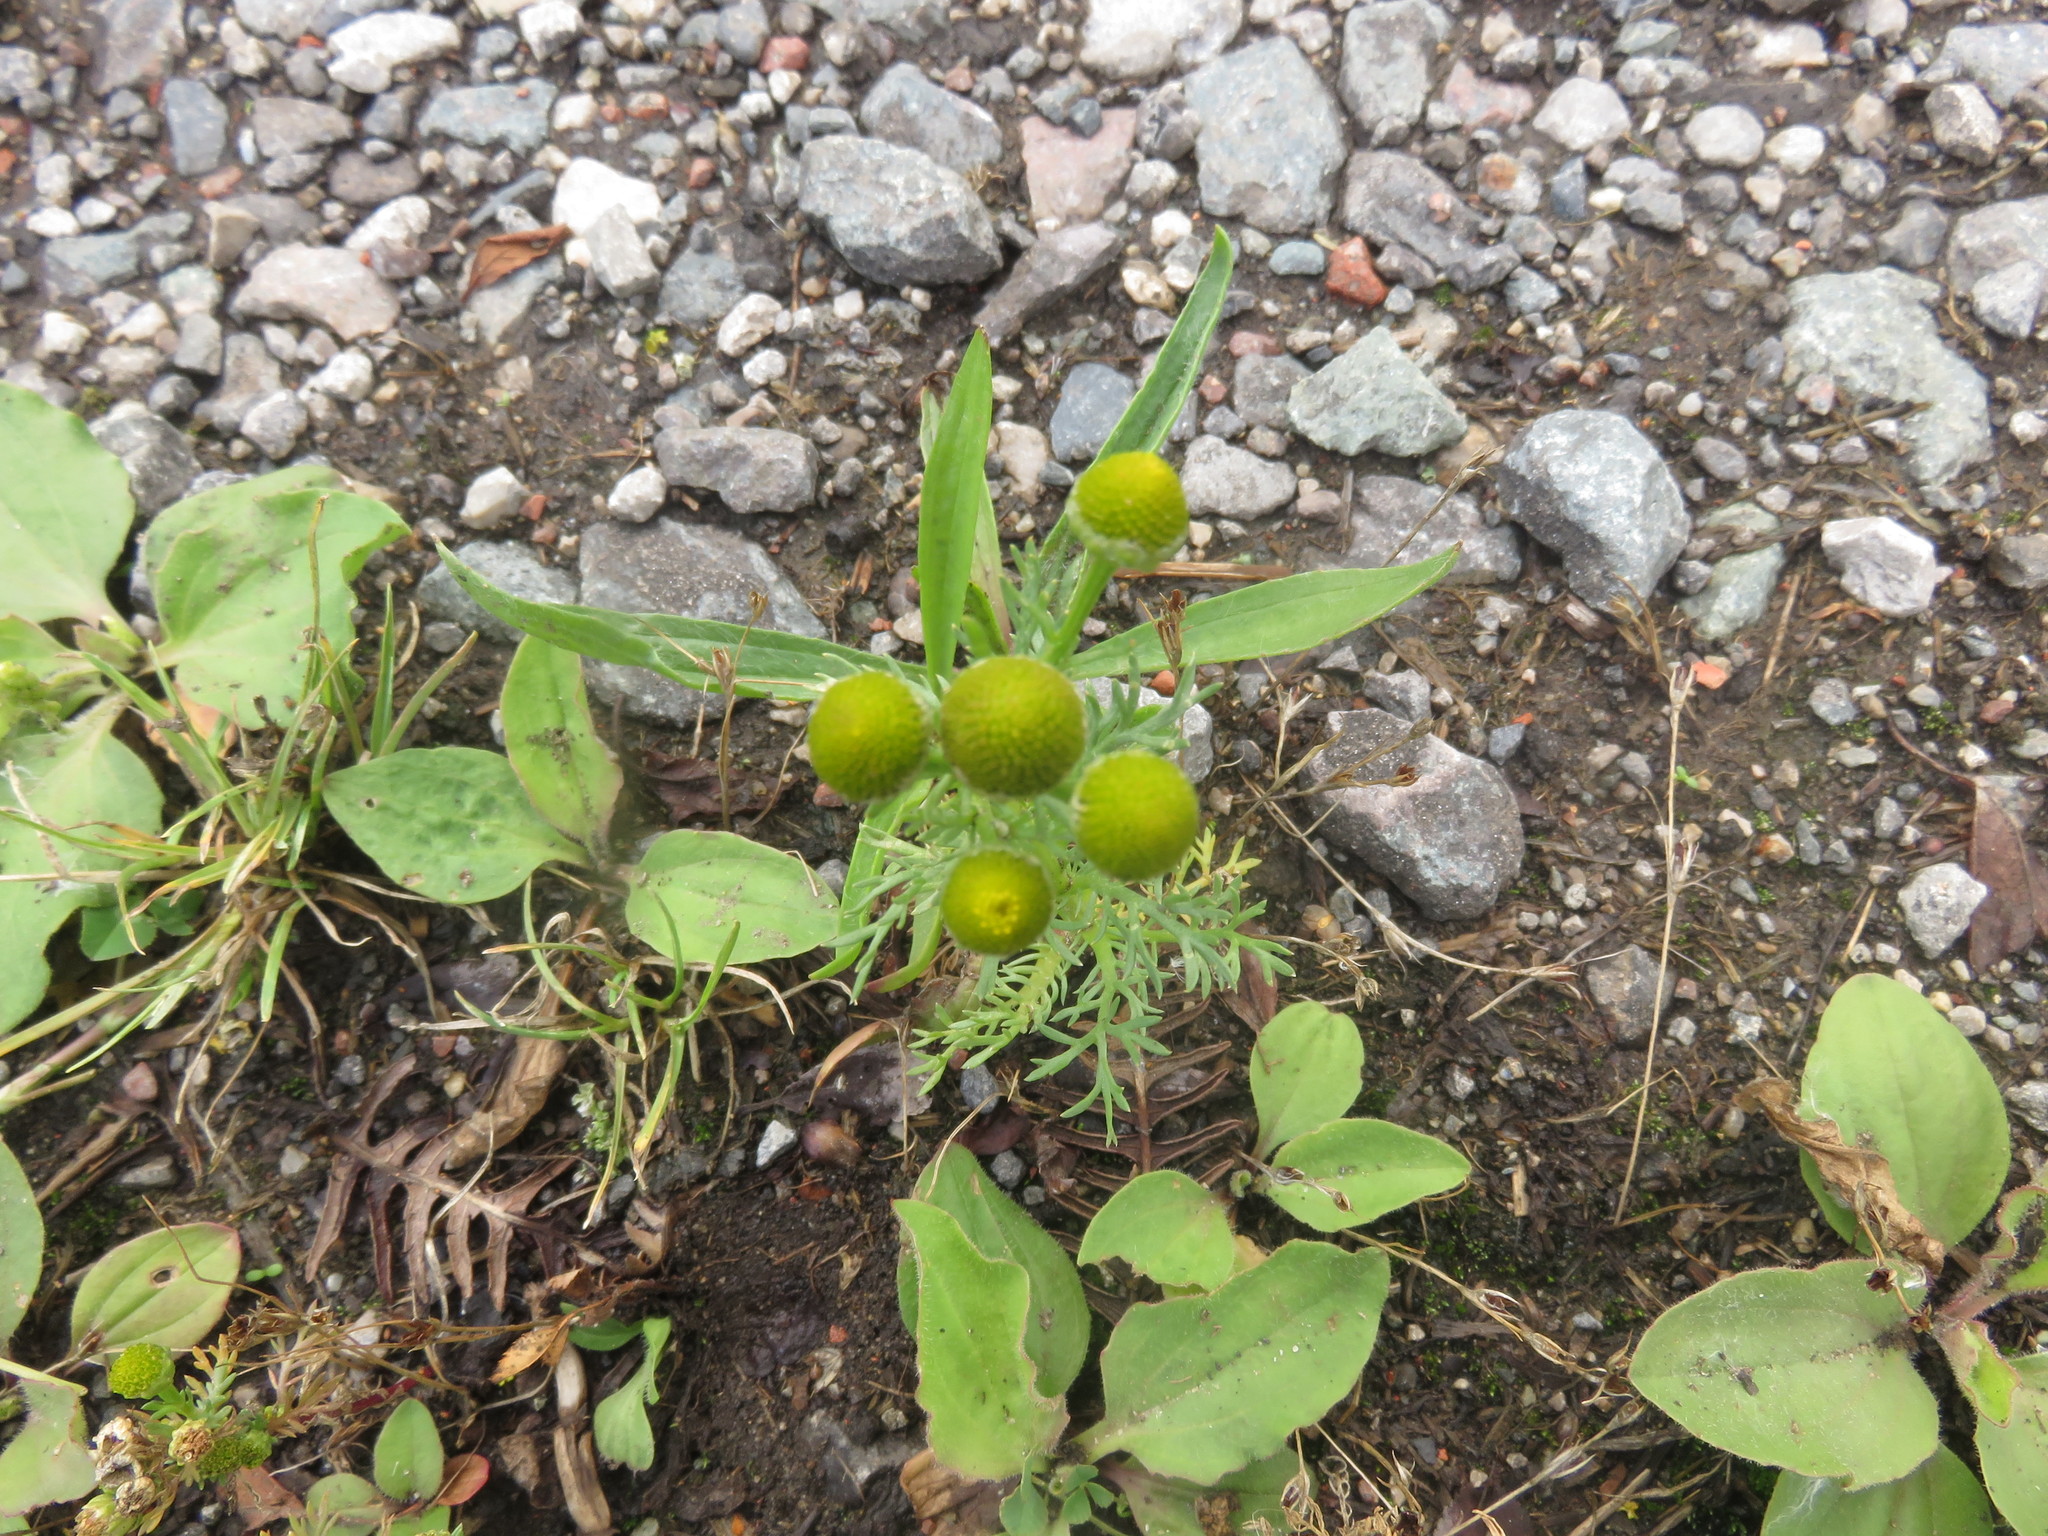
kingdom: Plantae
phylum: Tracheophyta
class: Magnoliopsida
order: Asterales
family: Asteraceae
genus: Matricaria
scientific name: Matricaria discoidea
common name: Disc mayweed
